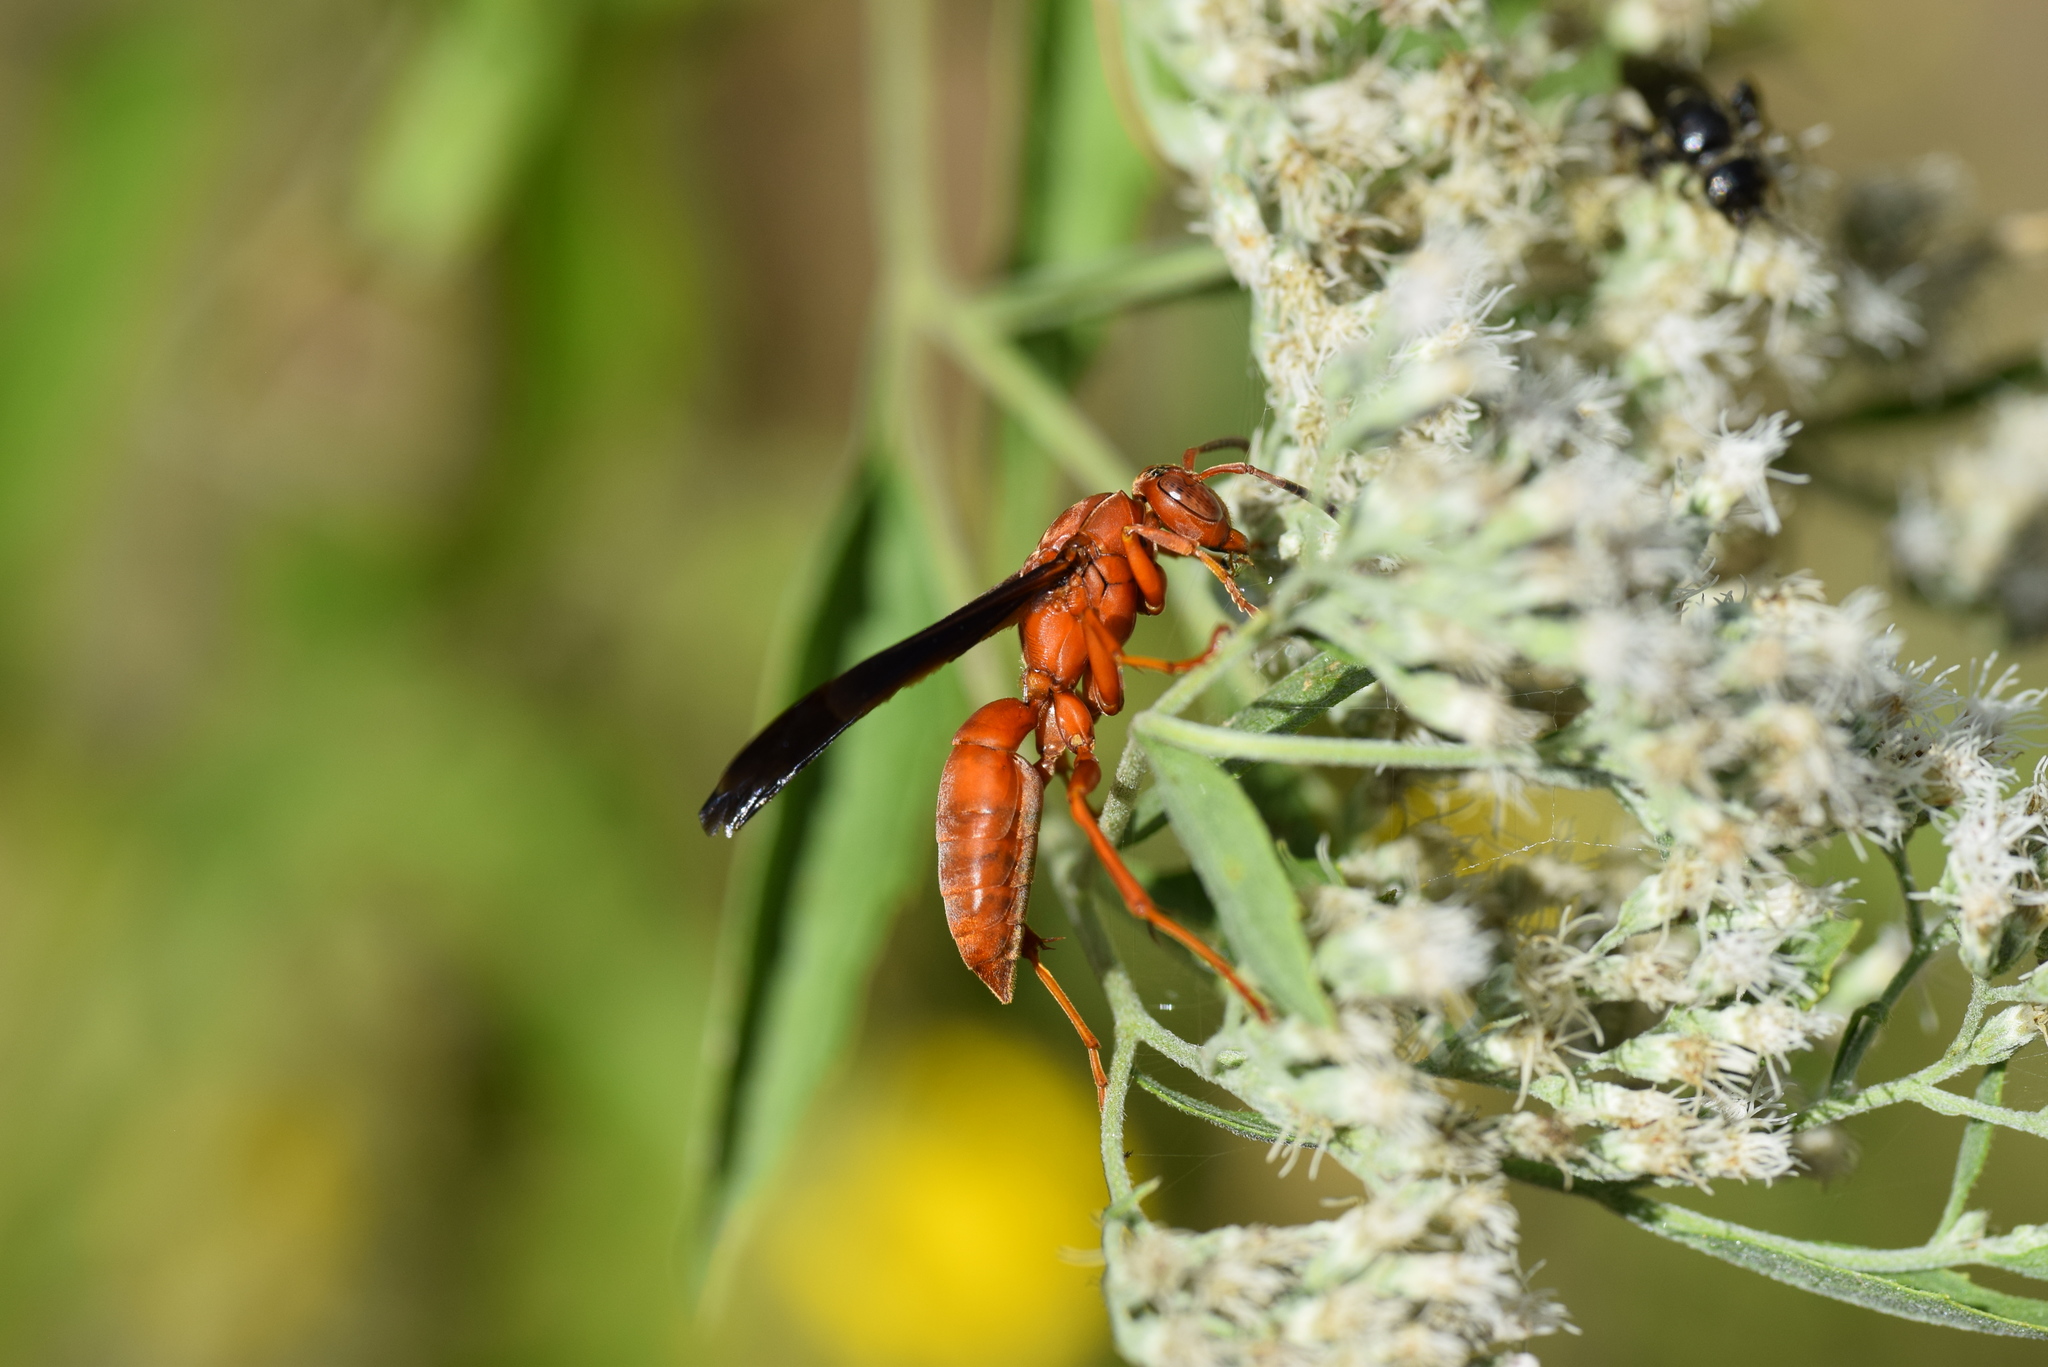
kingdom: Animalia
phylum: Arthropoda
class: Insecta
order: Hymenoptera
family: Eumenidae
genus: Polistes
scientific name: Polistes carolina
